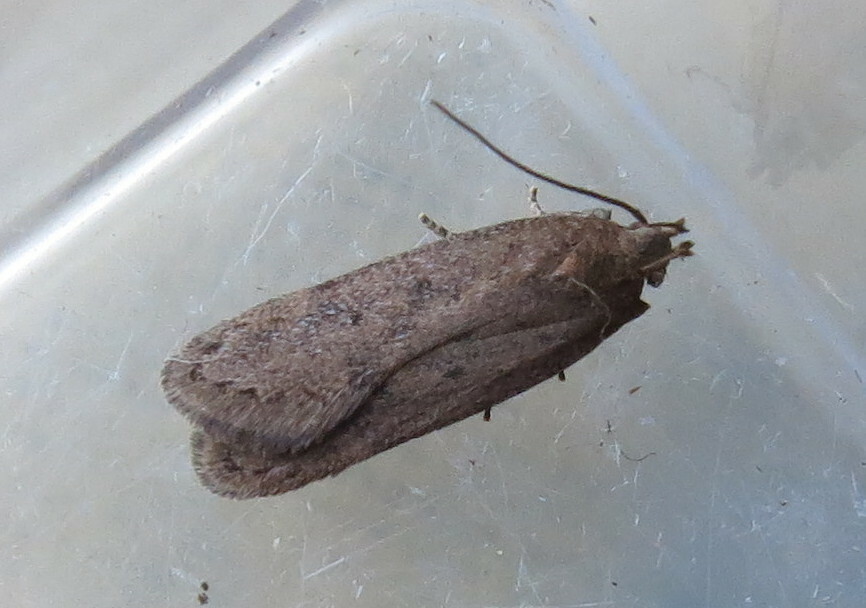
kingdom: Animalia
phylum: Arthropoda
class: Insecta
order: Lepidoptera
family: Gelechiidae
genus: Bryotropha
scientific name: Bryotropha terrella
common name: Cinerous groundling
